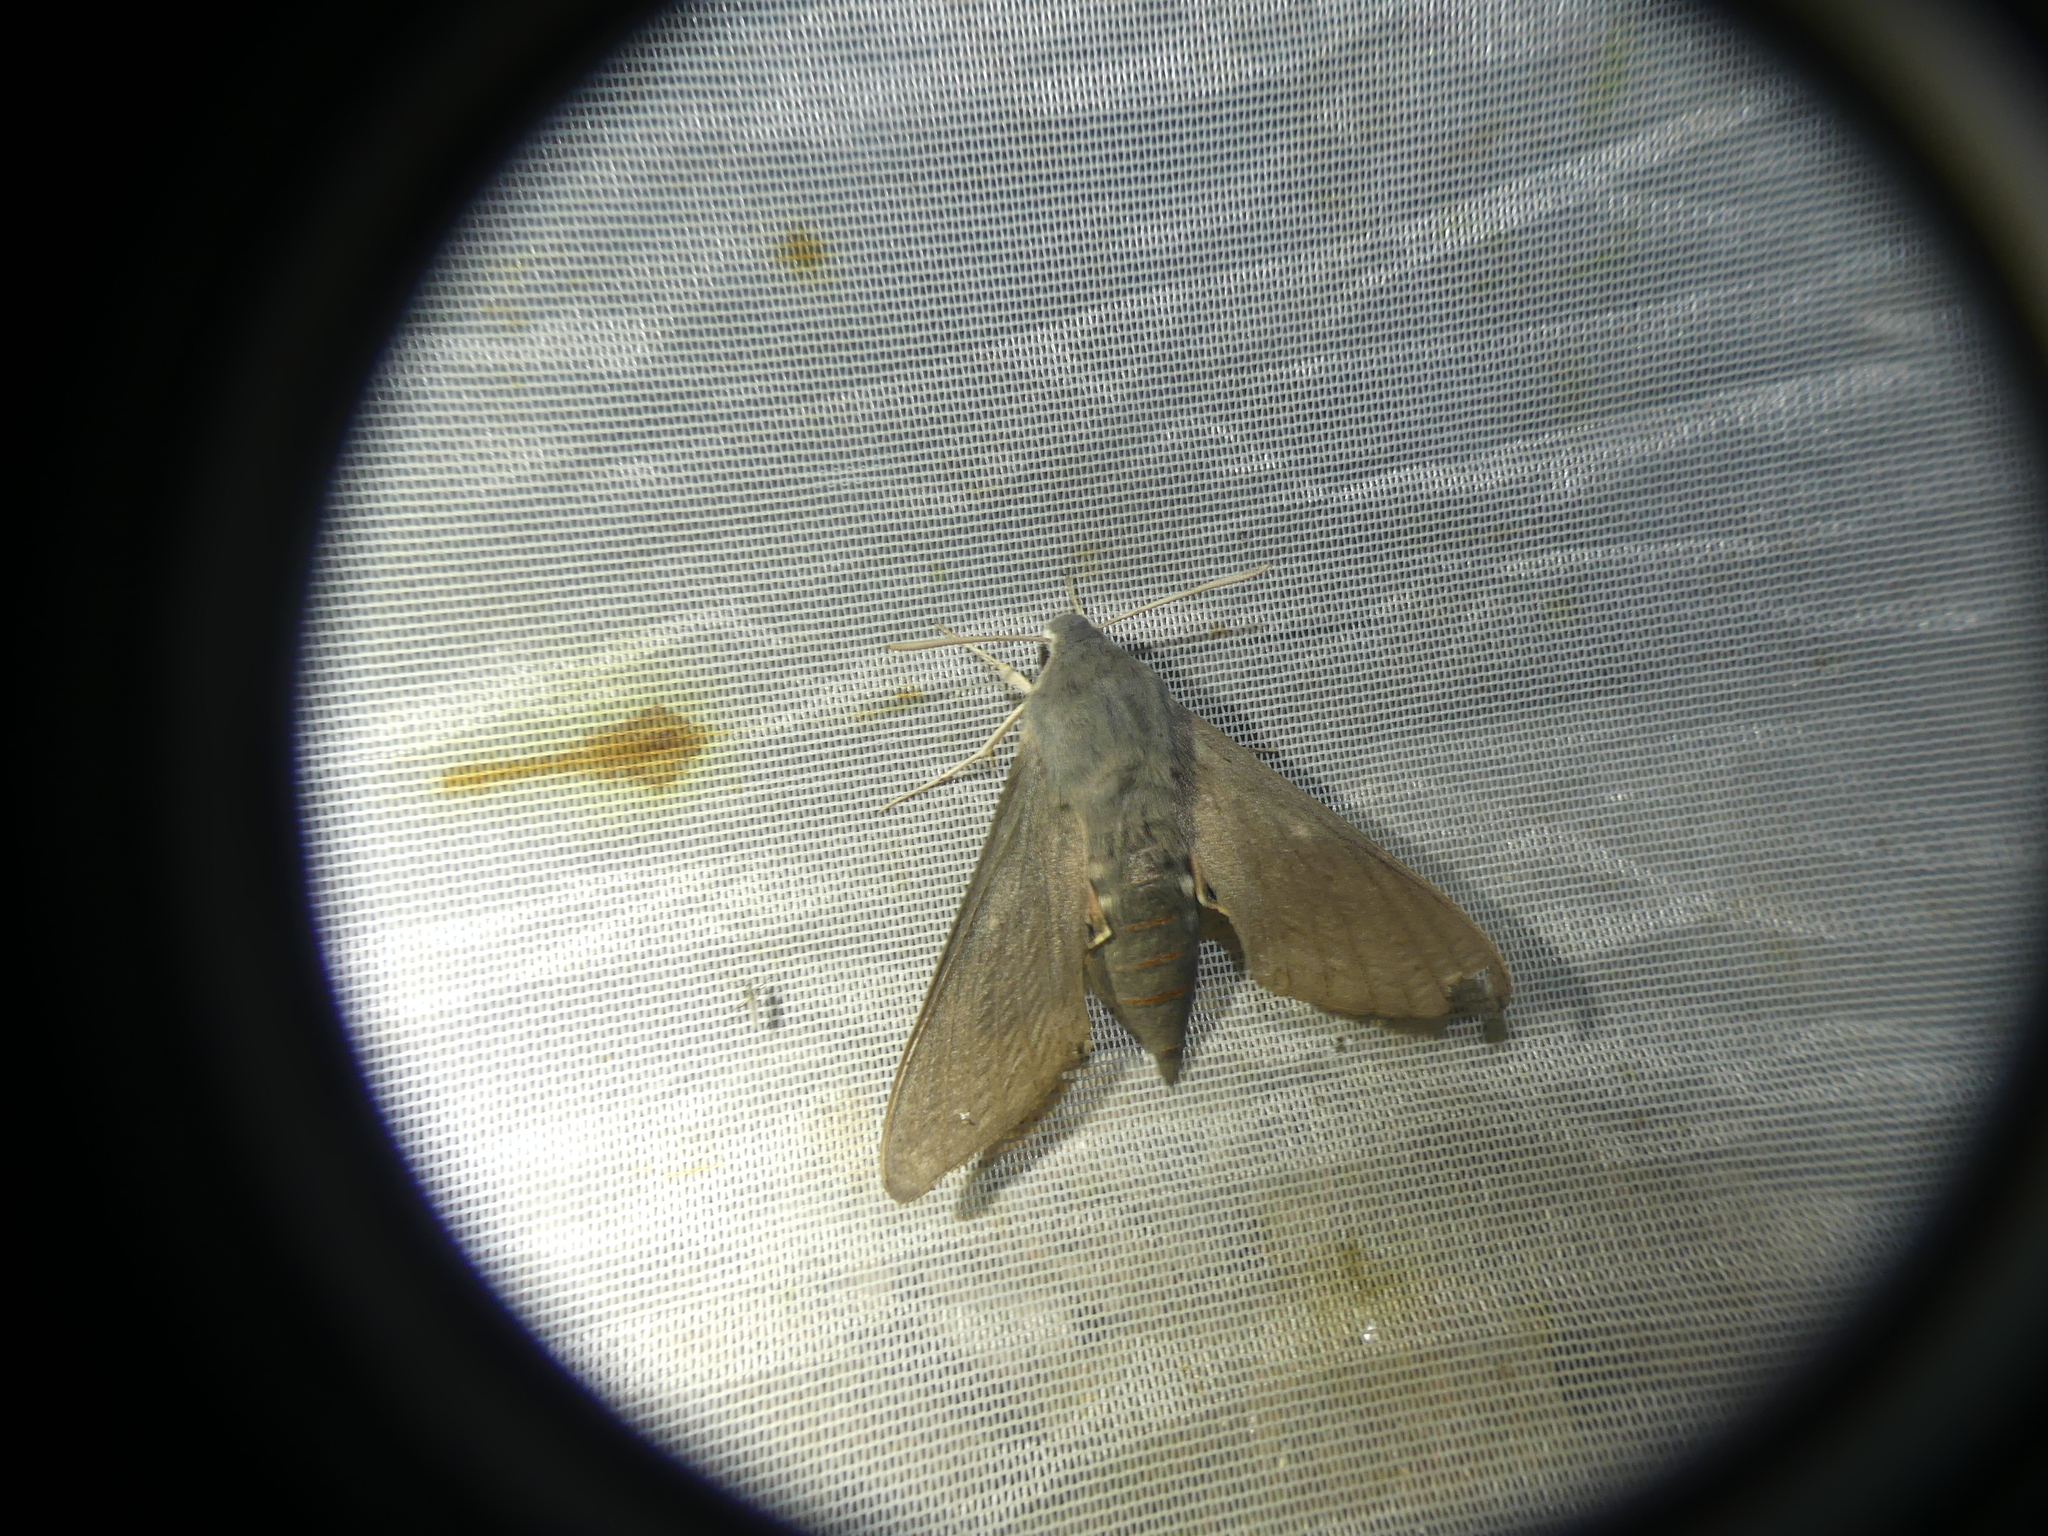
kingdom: Animalia
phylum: Arthropoda
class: Insecta
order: Lepidoptera
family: Sphingidae
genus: Hyles
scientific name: Hyles vespertilio
